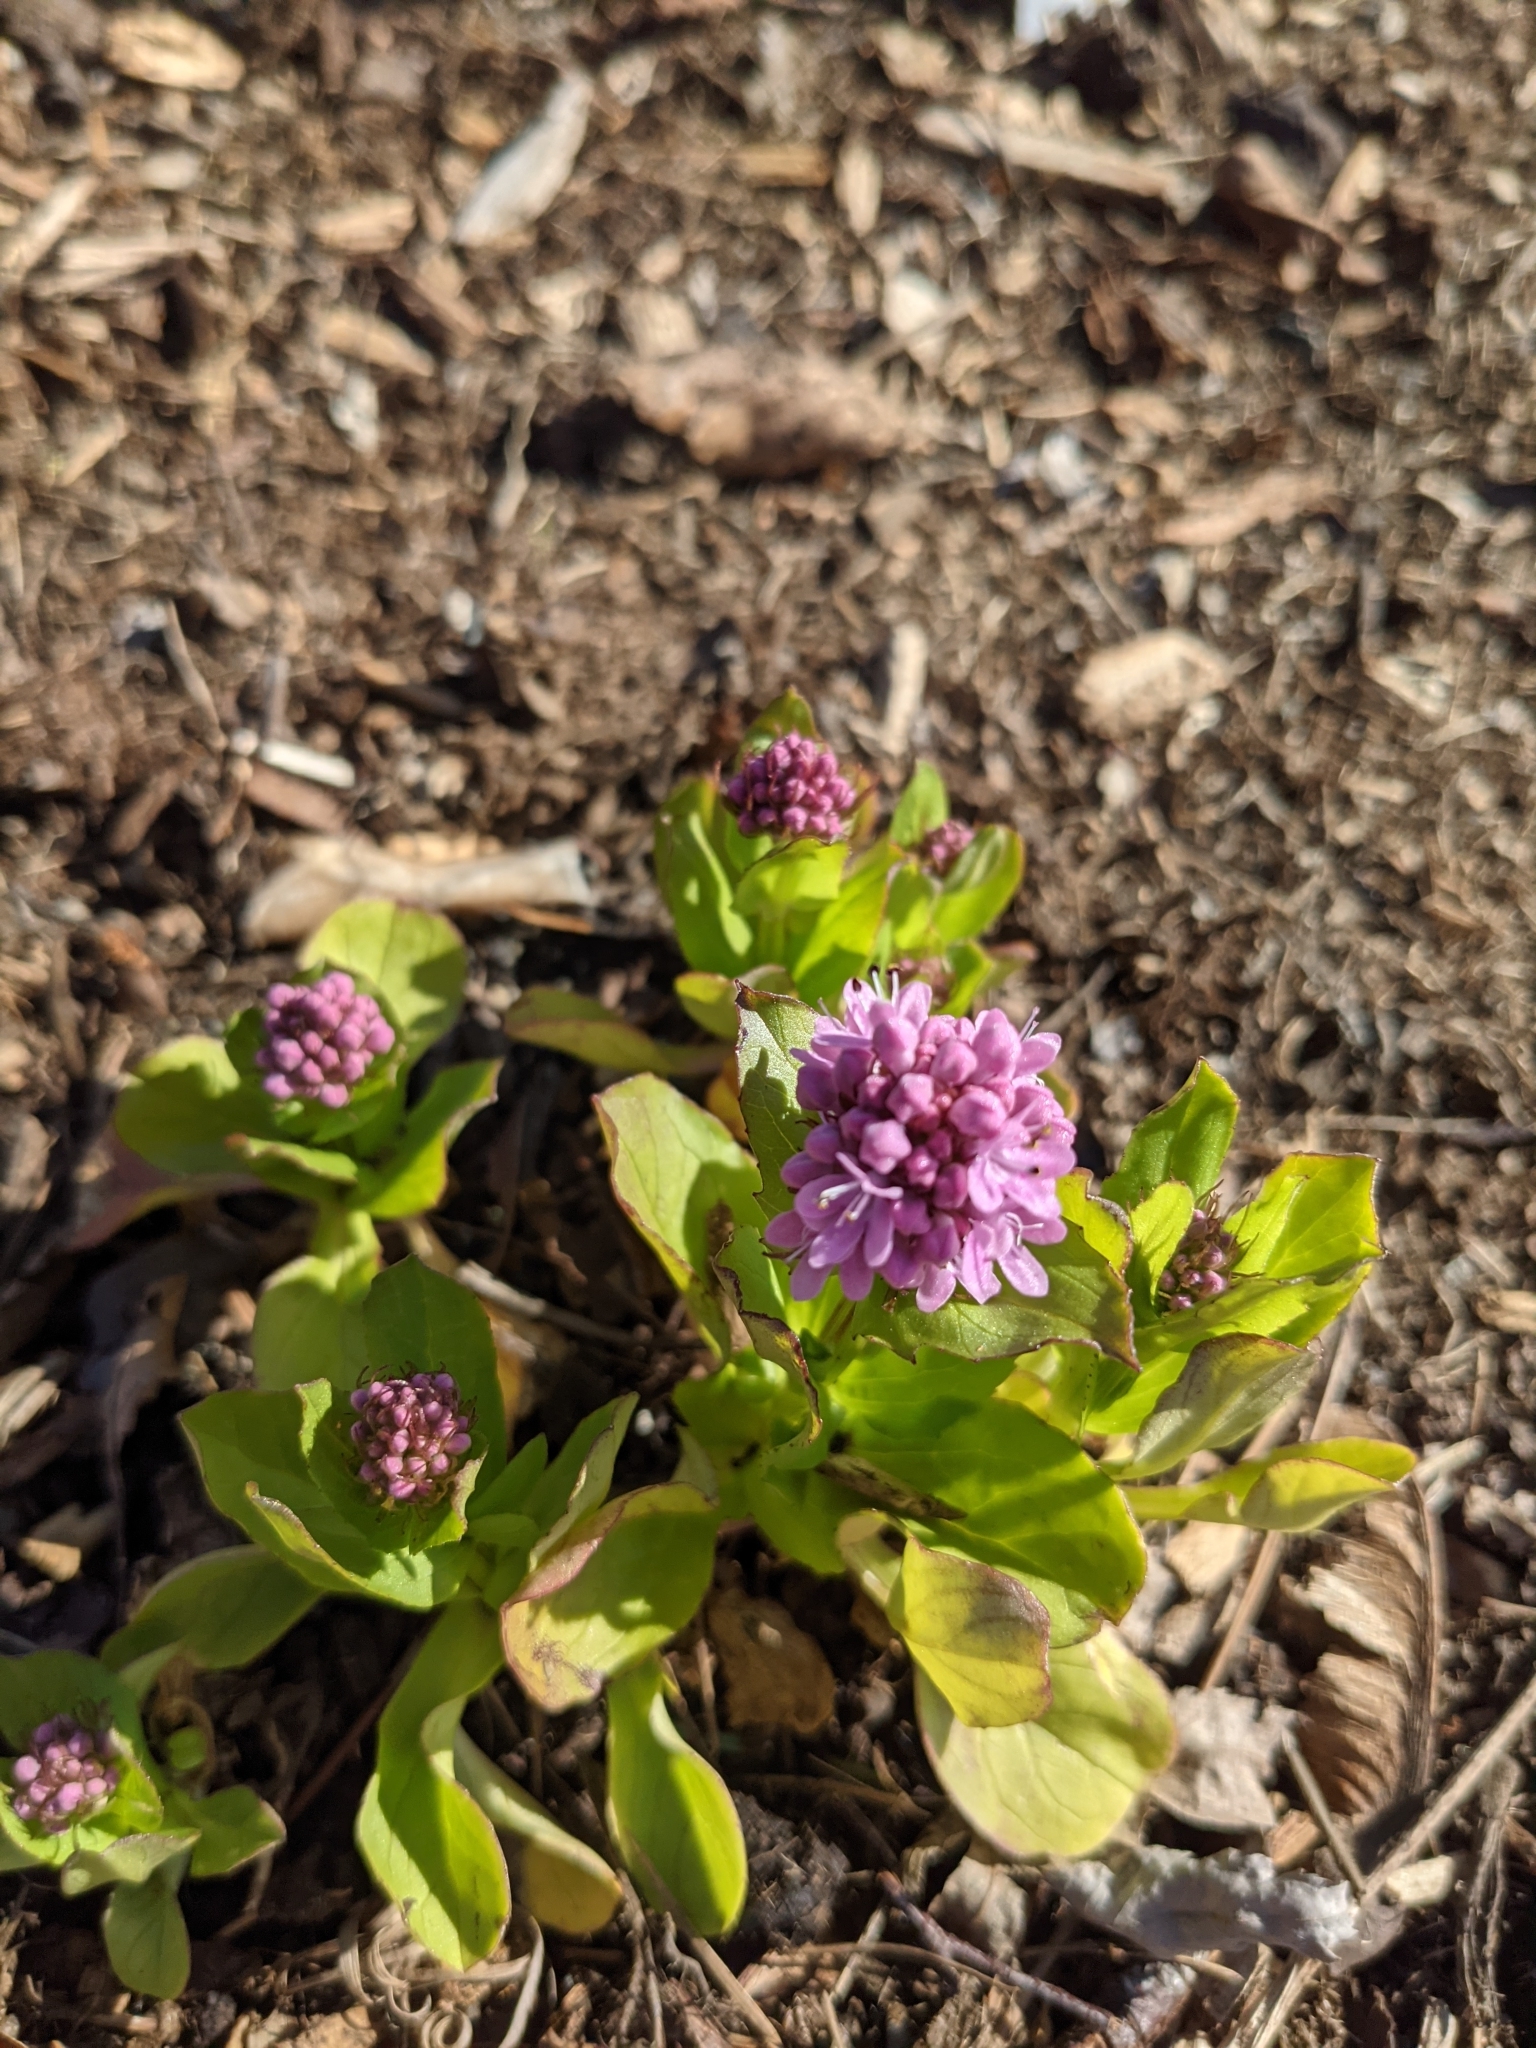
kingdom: Plantae
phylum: Tracheophyta
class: Magnoliopsida
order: Dipsacales
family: Caprifoliaceae
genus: Plectritis
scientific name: Plectritis congesta
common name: Pink plectritis
